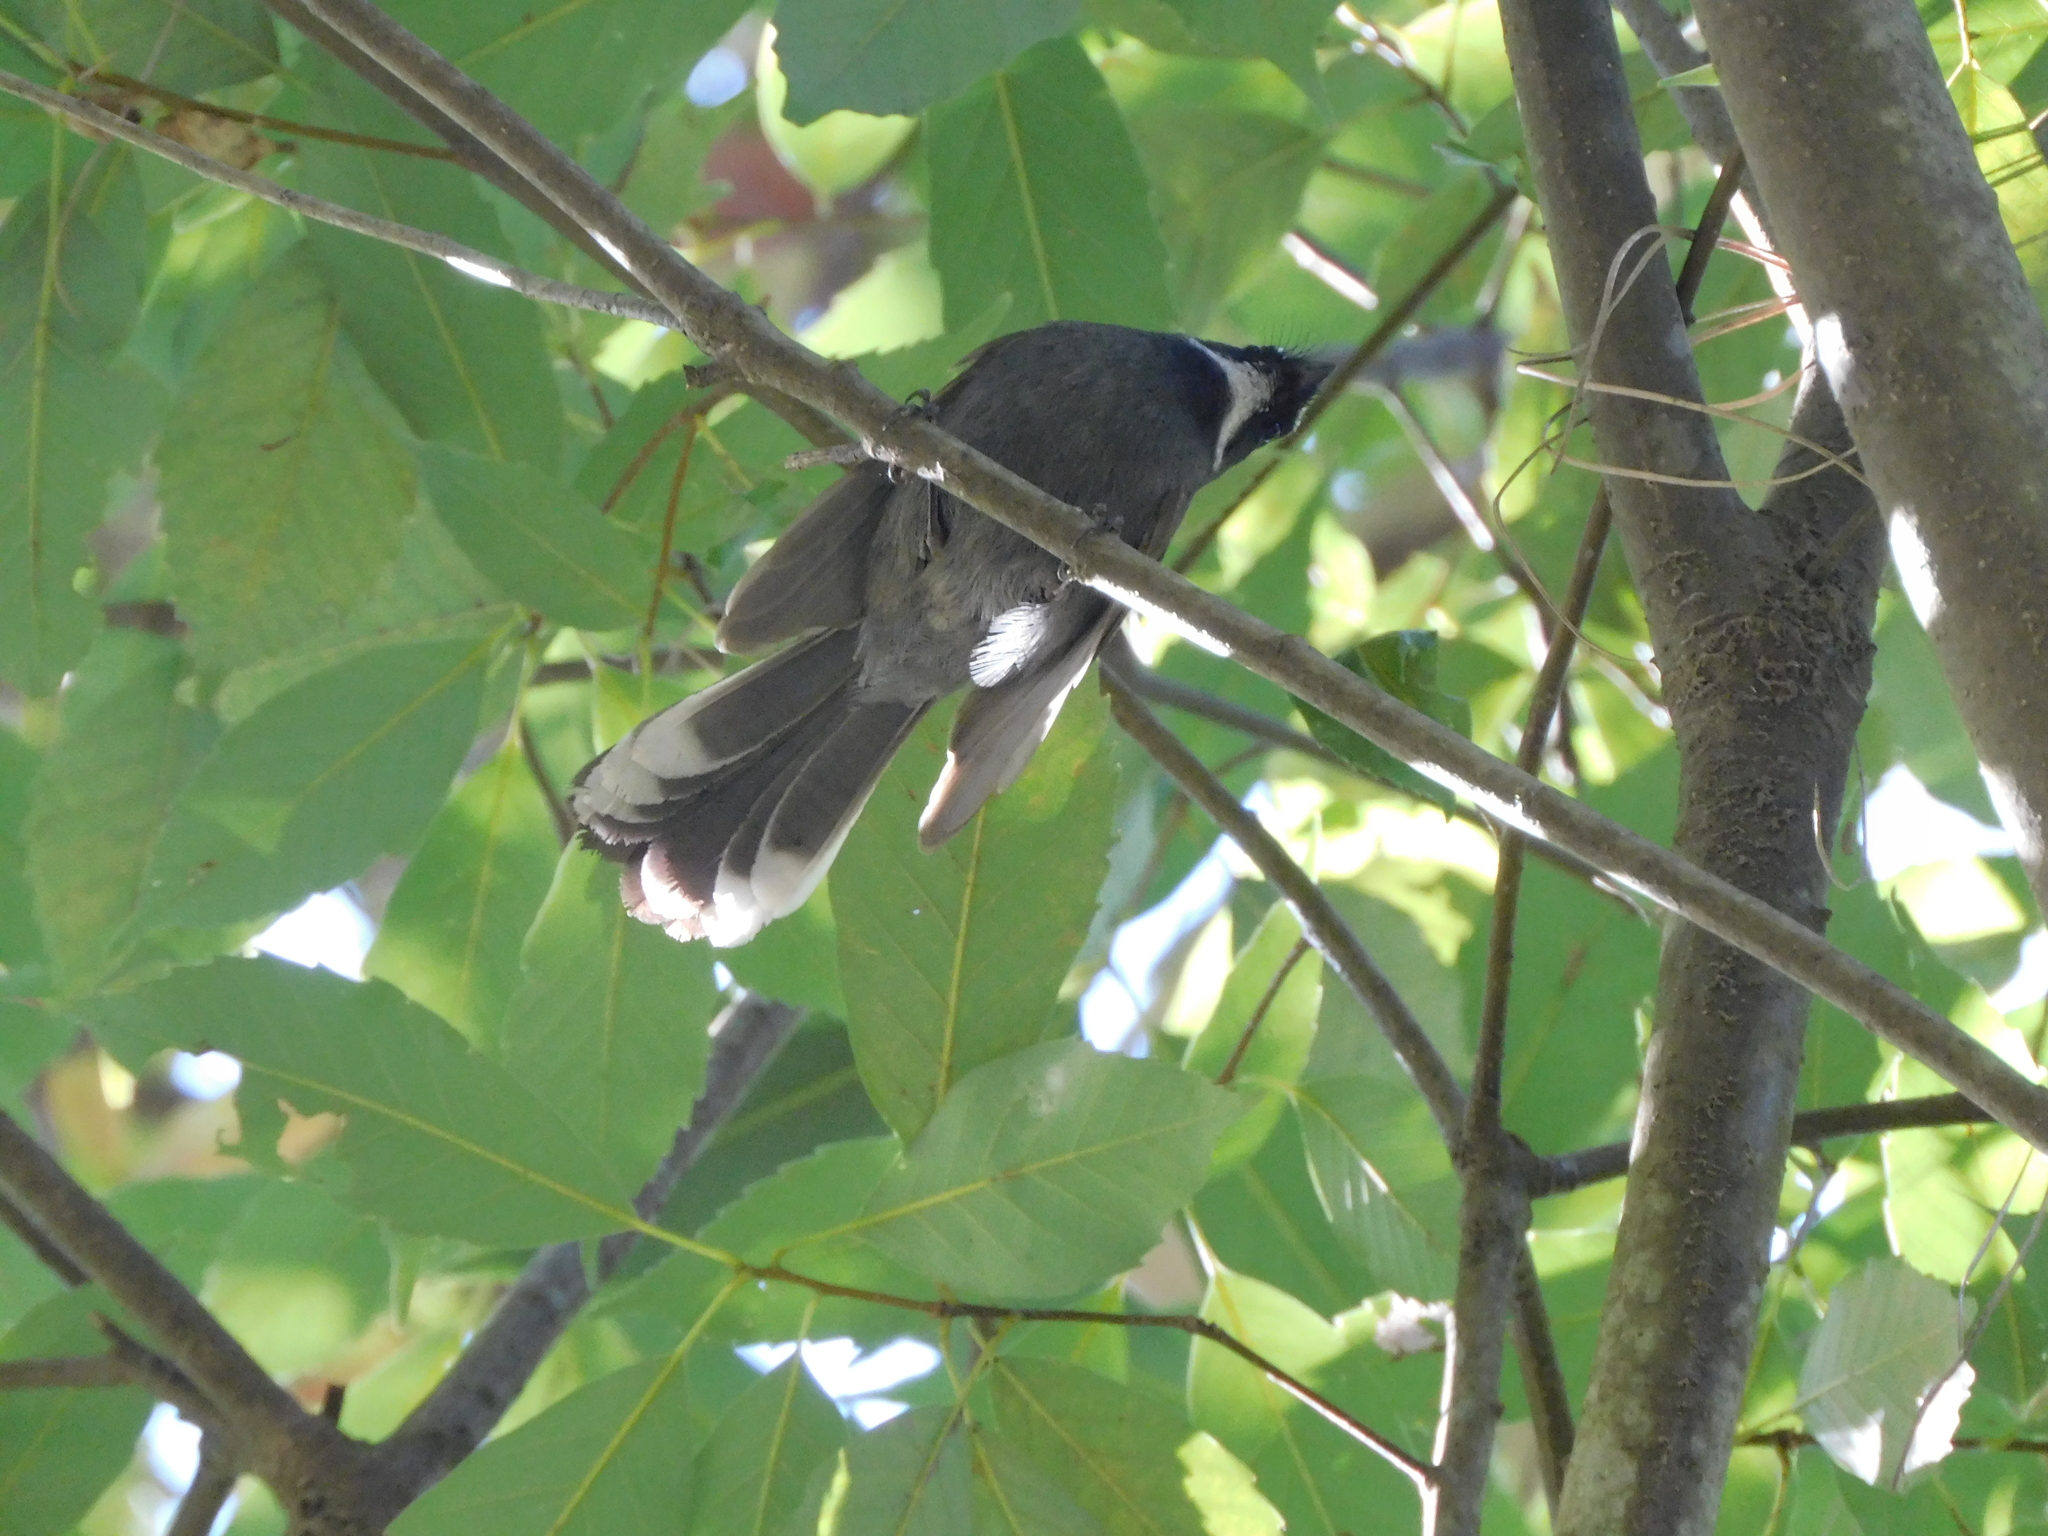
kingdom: Animalia
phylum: Chordata
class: Aves
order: Passeriformes
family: Rhipiduridae
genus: Rhipidura
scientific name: Rhipidura albicollis
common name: White-throated fantail
